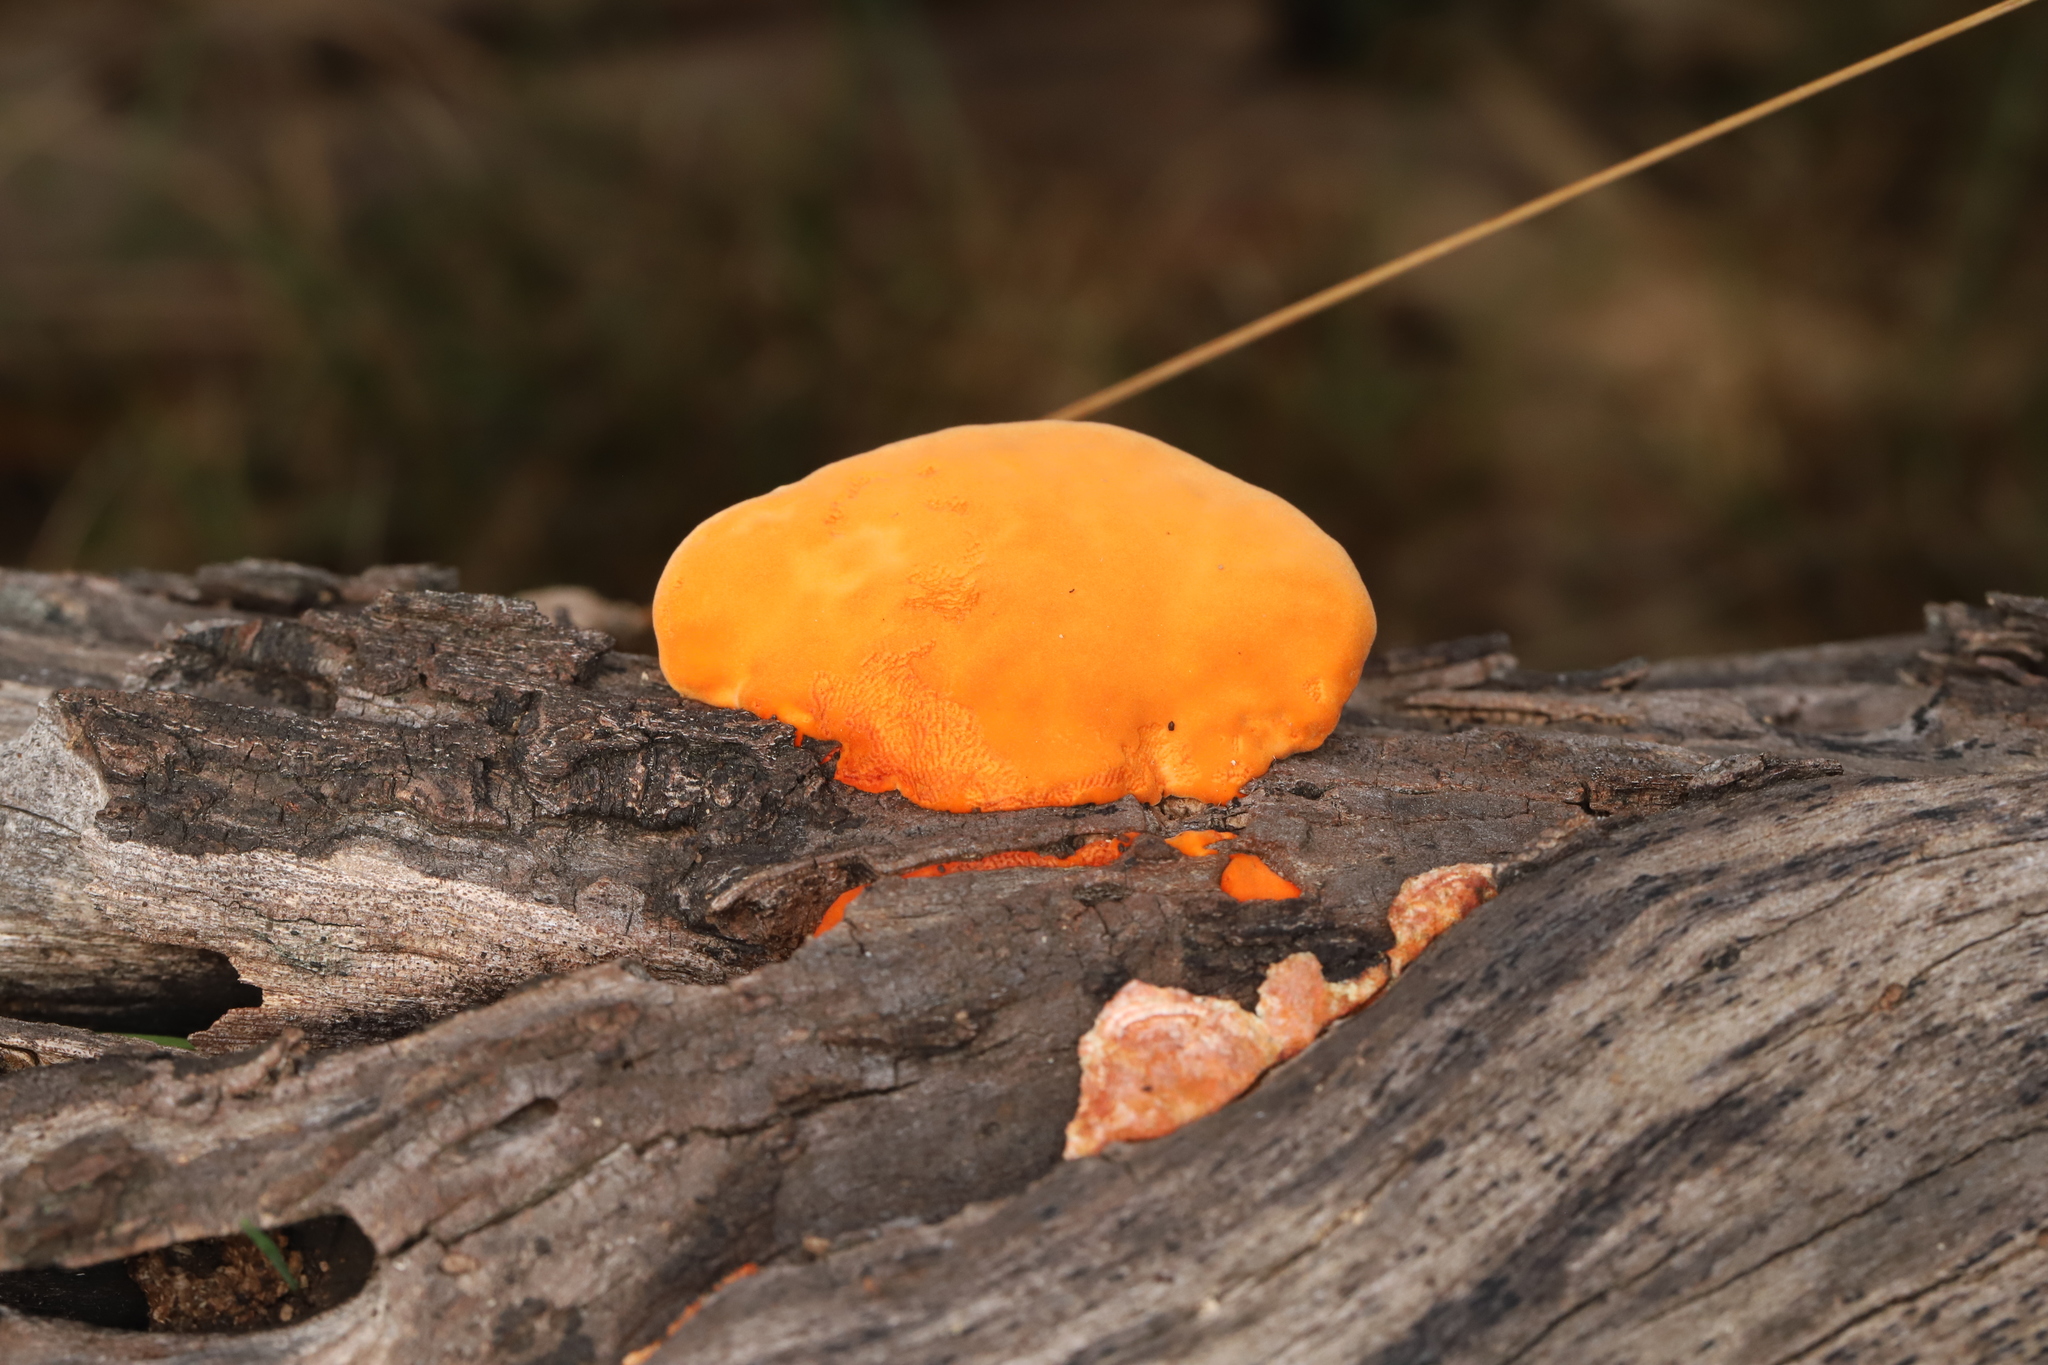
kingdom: Fungi
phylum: Basidiomycota
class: Agaricomycetes
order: Polyporales
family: Polyporaceae
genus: Trametes
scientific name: Trametes coccinea
